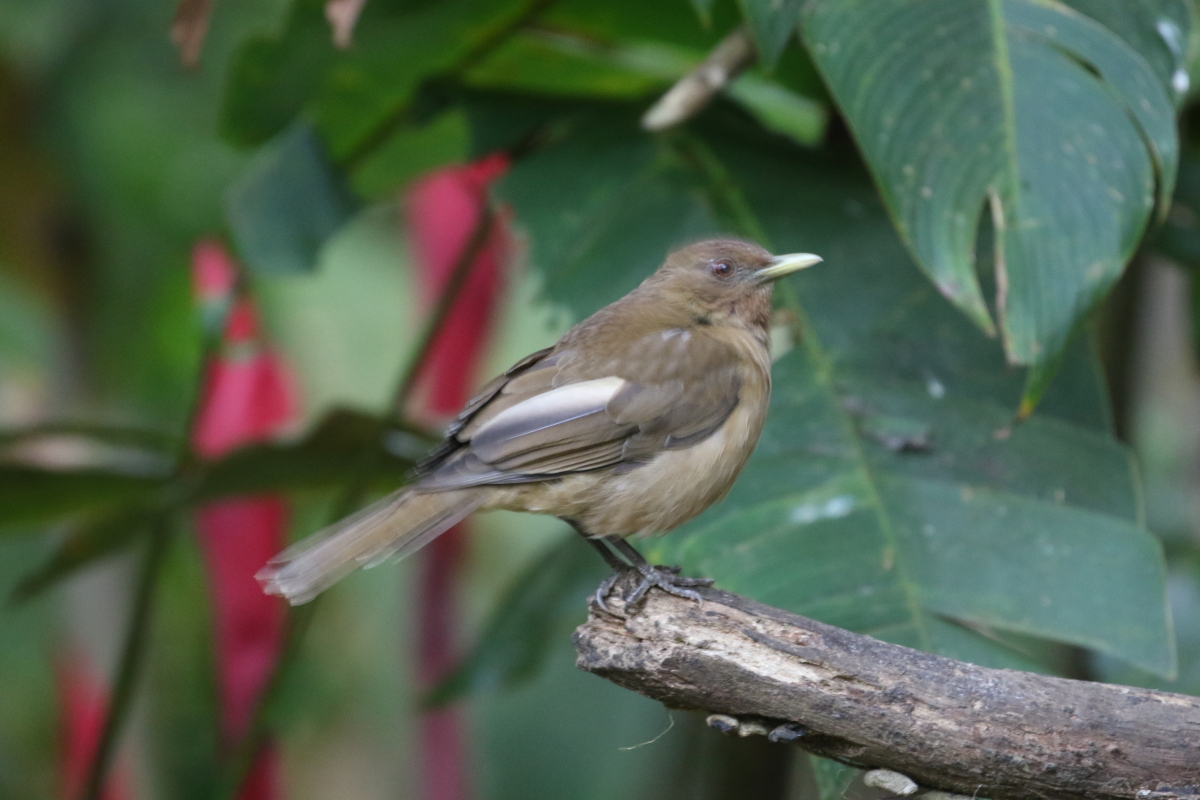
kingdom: Animalia
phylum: Chordata
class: Aves
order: Passeriformes
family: Turdidae
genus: Turdus
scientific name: Turdus grayi
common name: Clay-colored thrush
